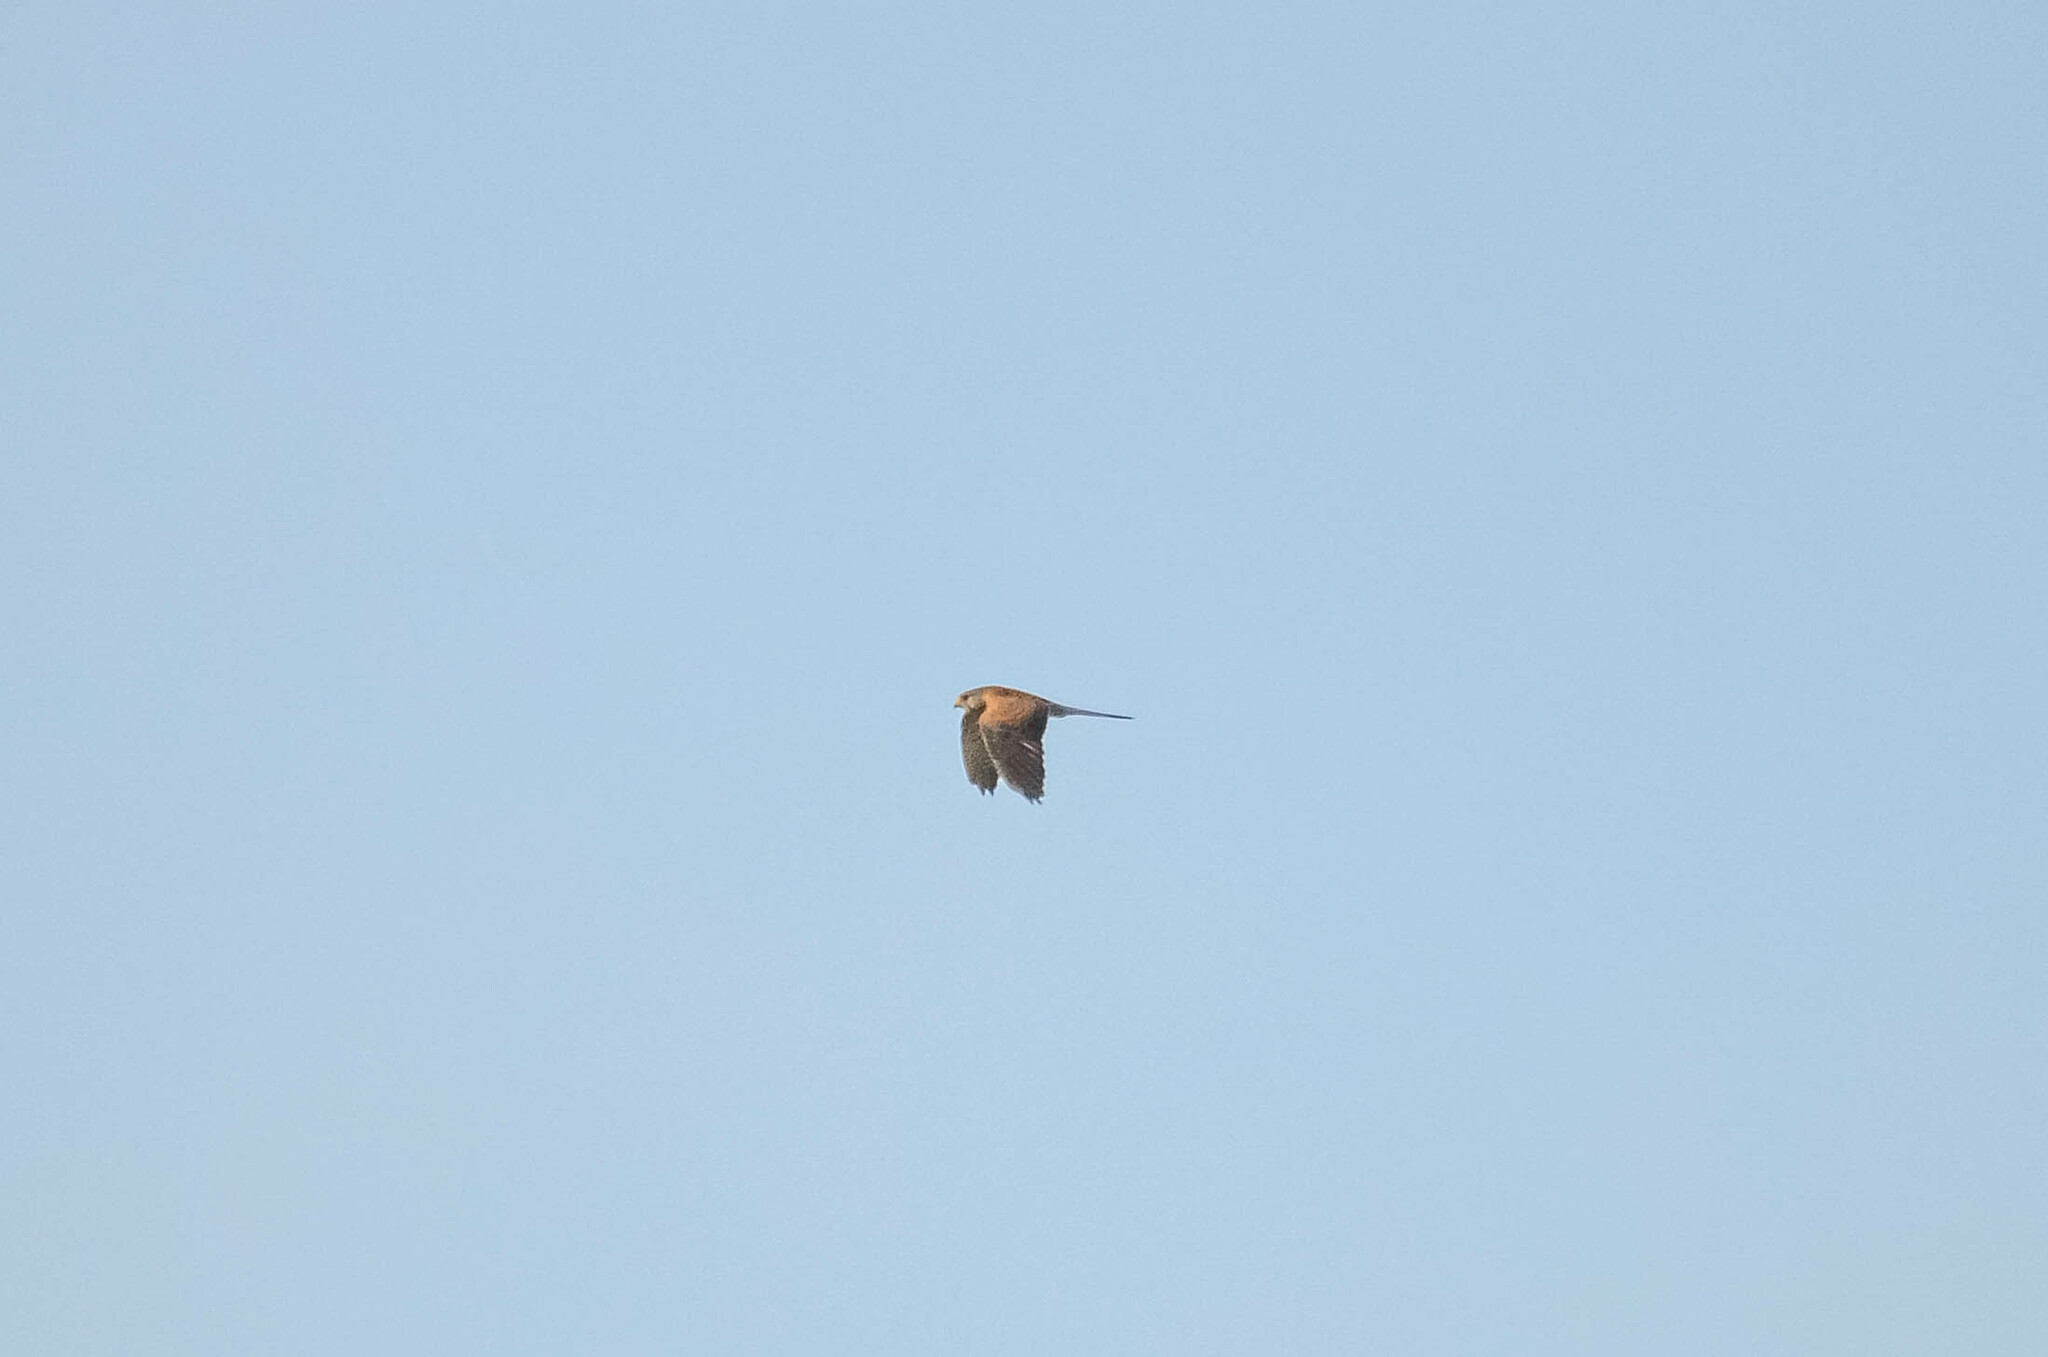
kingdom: Animalia
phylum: Chordata
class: Aves
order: Falconiformes
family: Falconidae
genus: Falco
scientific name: Falco tinnunculus
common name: Common kestrel
